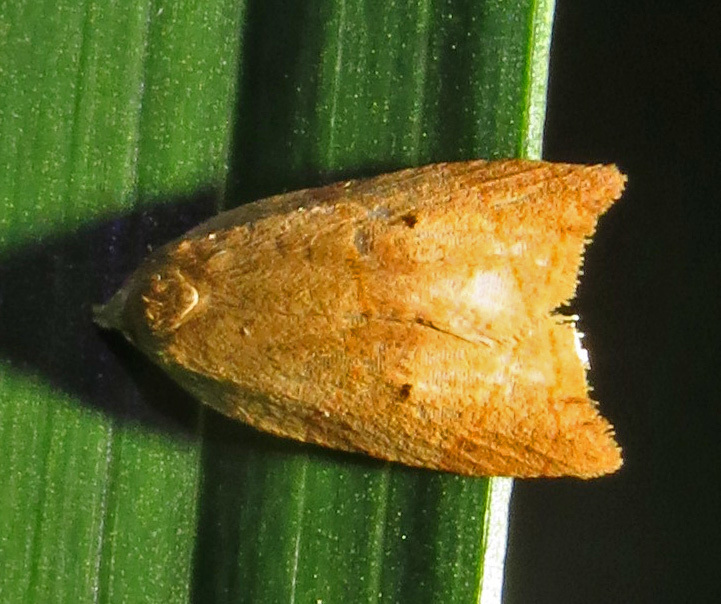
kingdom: Animalia
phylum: Arthropoda
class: Insecta
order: Lepidoptera
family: Tortricidae
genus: Coelostathma
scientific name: Coelostathma discopunctana
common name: Batman moth
